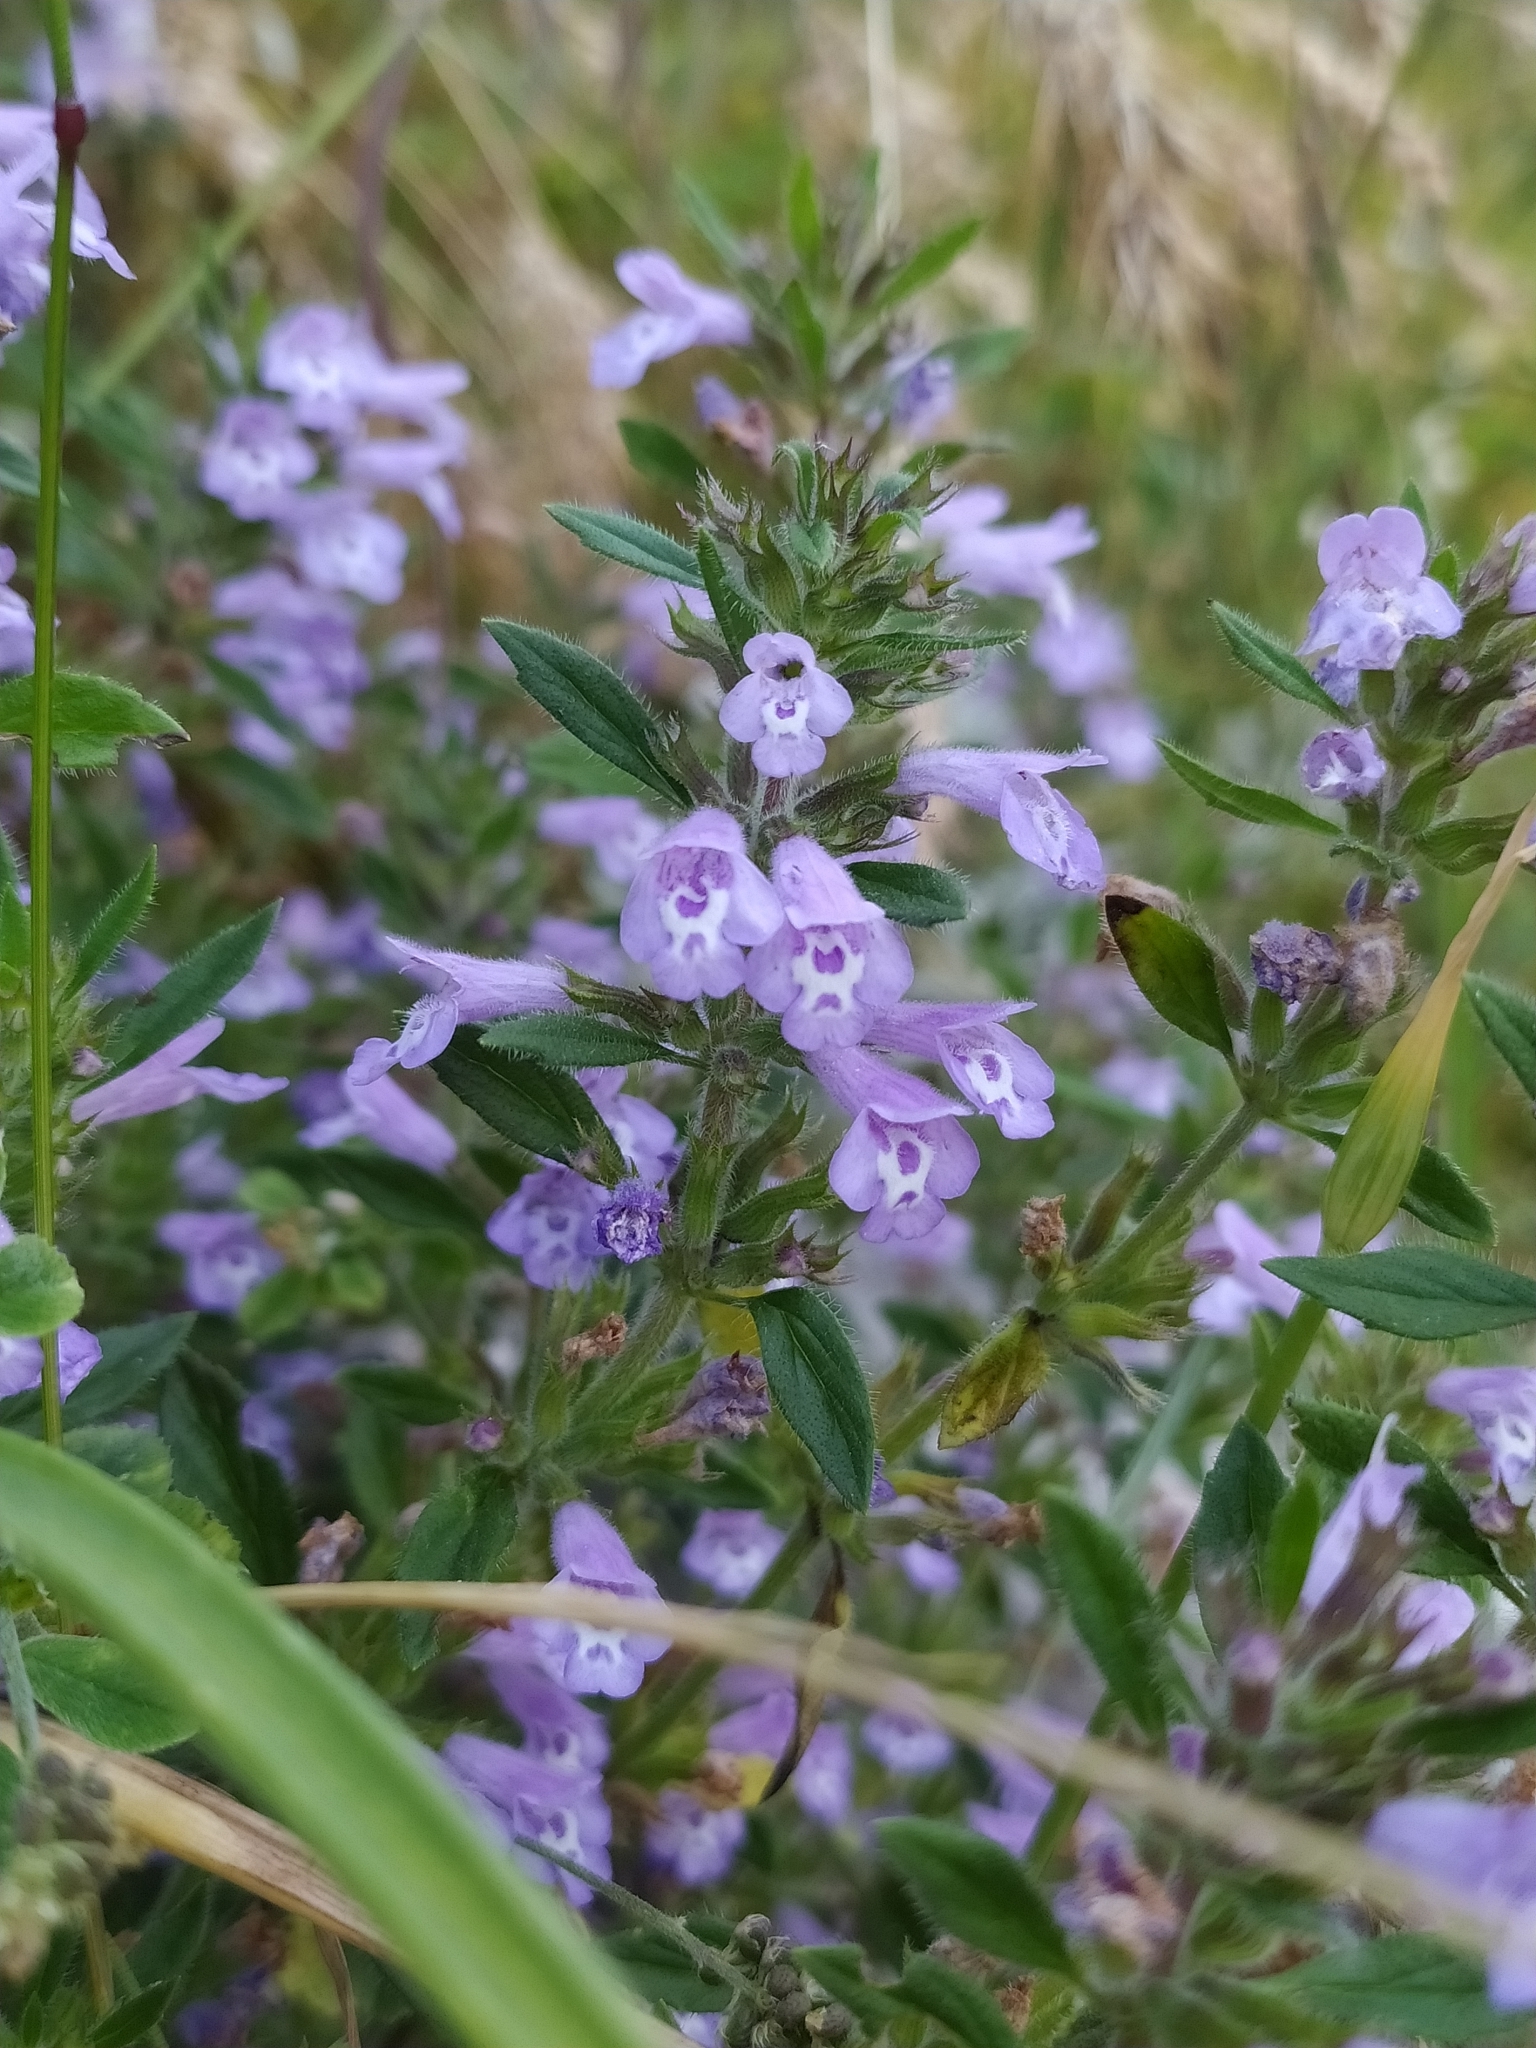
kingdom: Plantae
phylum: Tracheophyta
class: Magnoliopsida
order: Lamiales
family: Lamiaceae
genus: Clinopodium
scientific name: Clinopodium acinos
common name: Basil thyme
